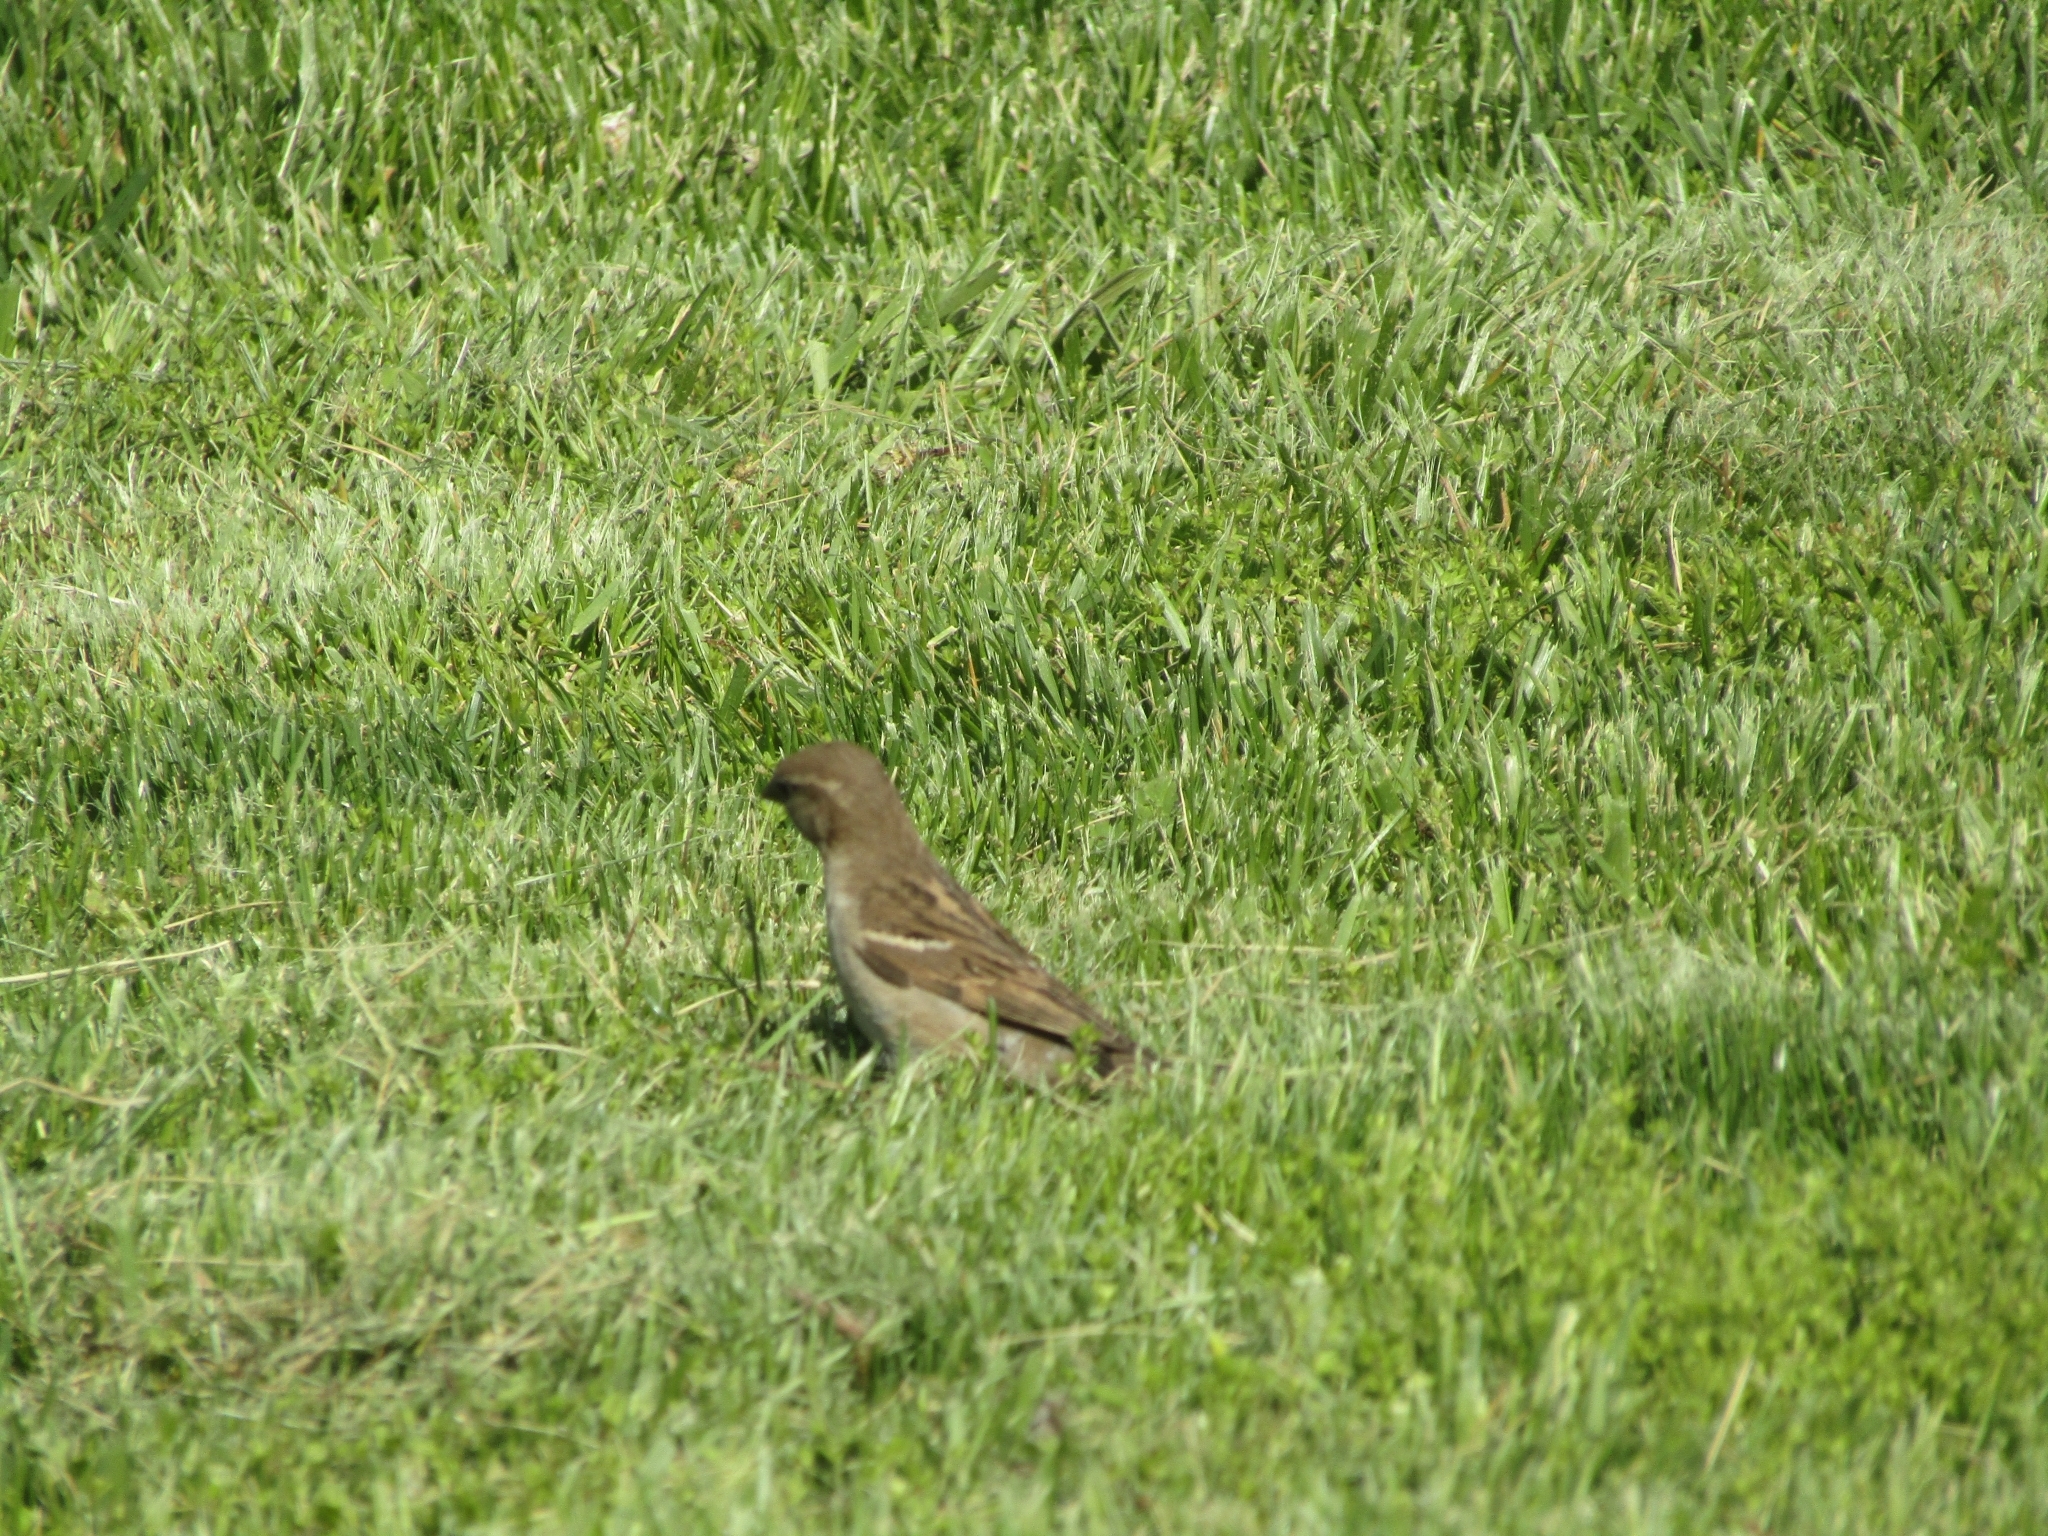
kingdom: Animalia
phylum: Chordata
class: Aves
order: Passeriformes
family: Passeridae
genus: Passer
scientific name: Passer domesticus
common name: House sparrow
